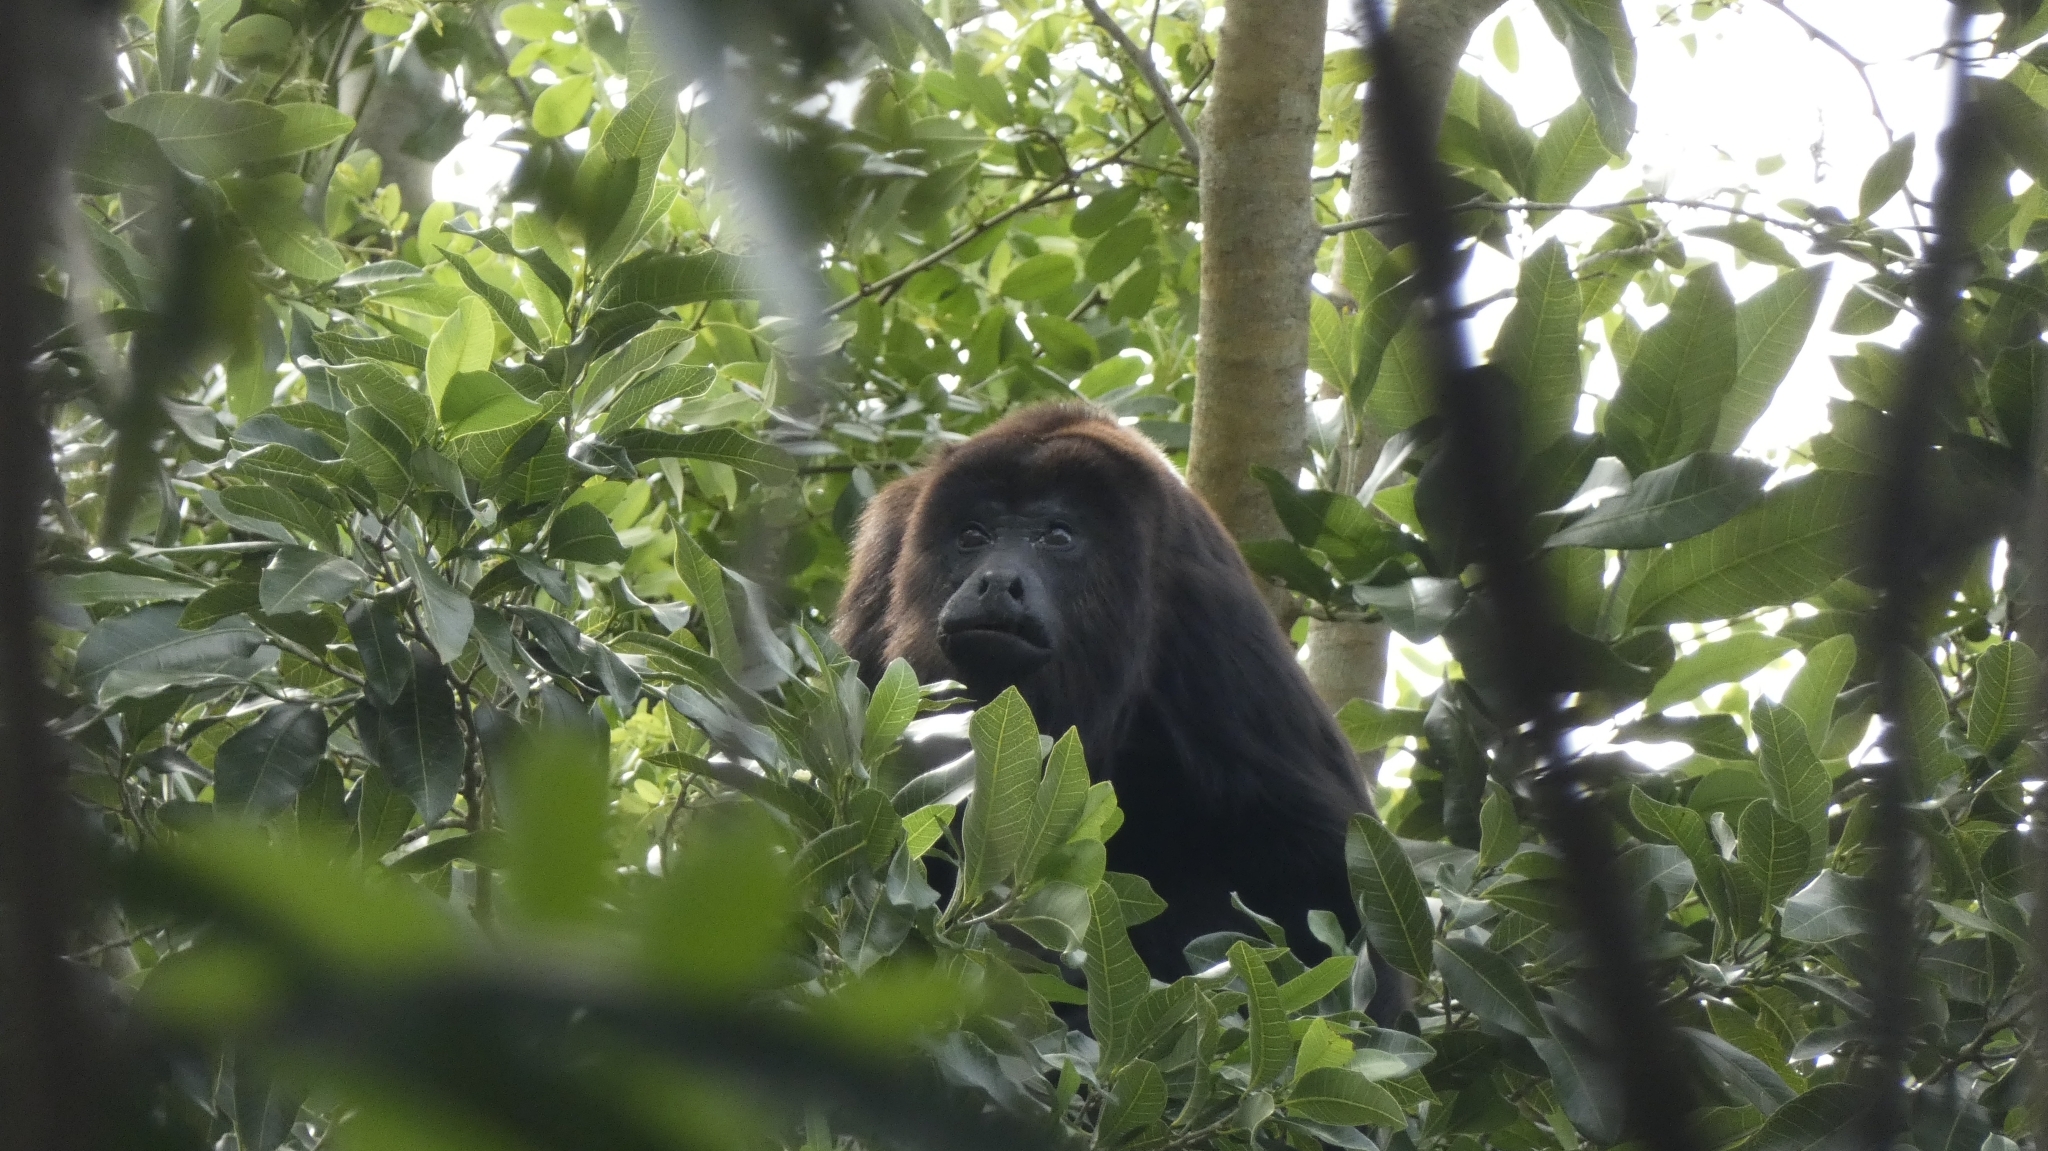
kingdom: Animalia
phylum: Chordata
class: Mammalia
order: Primates
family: Atelidae
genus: Alouatta
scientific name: Alouatta pigra
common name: Guatemalan black howler
